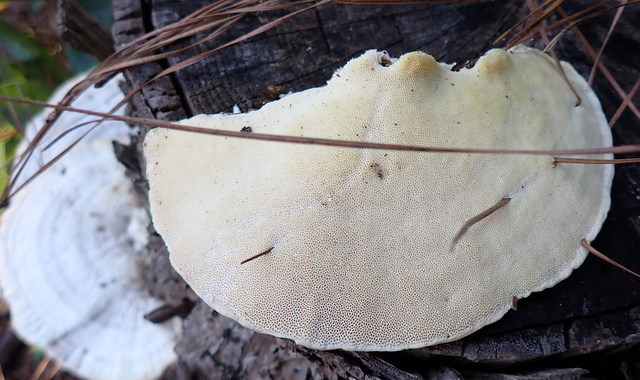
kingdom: Fungi
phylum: Basidiomycota
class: Agaricomycetes
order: Polyporales
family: Polyporaceae
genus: Trametes
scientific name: Trametes lactinea
